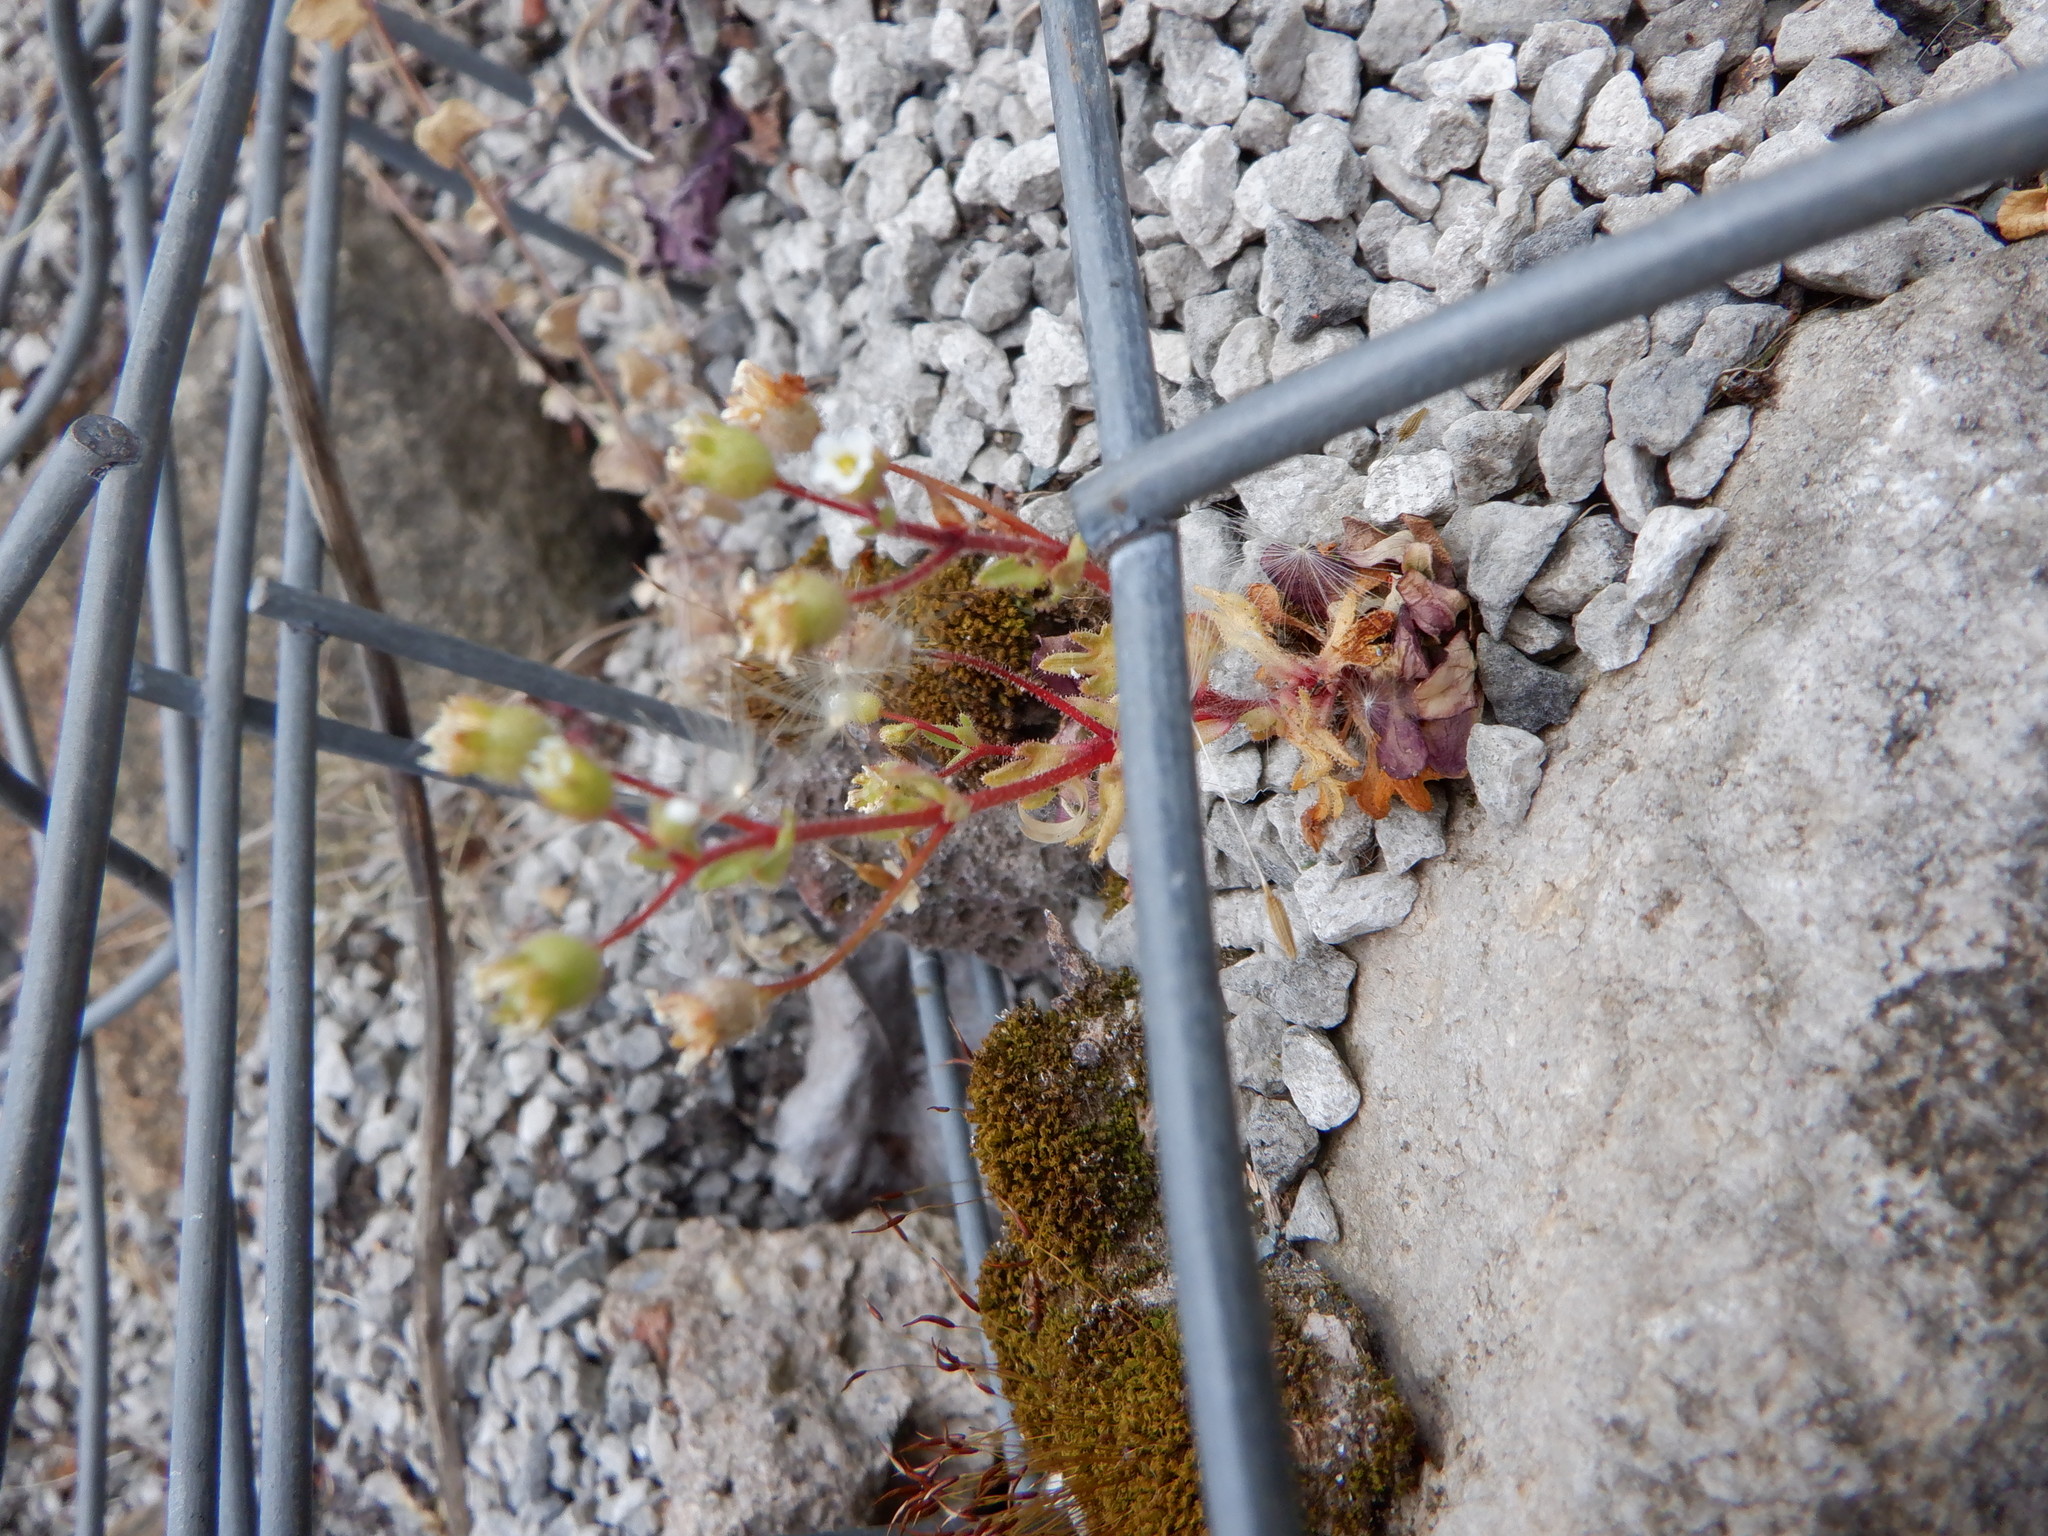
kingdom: Plantae
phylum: Tracheophyta
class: Magnoliopsida
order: Saxifragales
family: Saxifragaceae
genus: Saxifraga
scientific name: Saxifraga tridactylites
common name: Rue-leaved saxifrage
